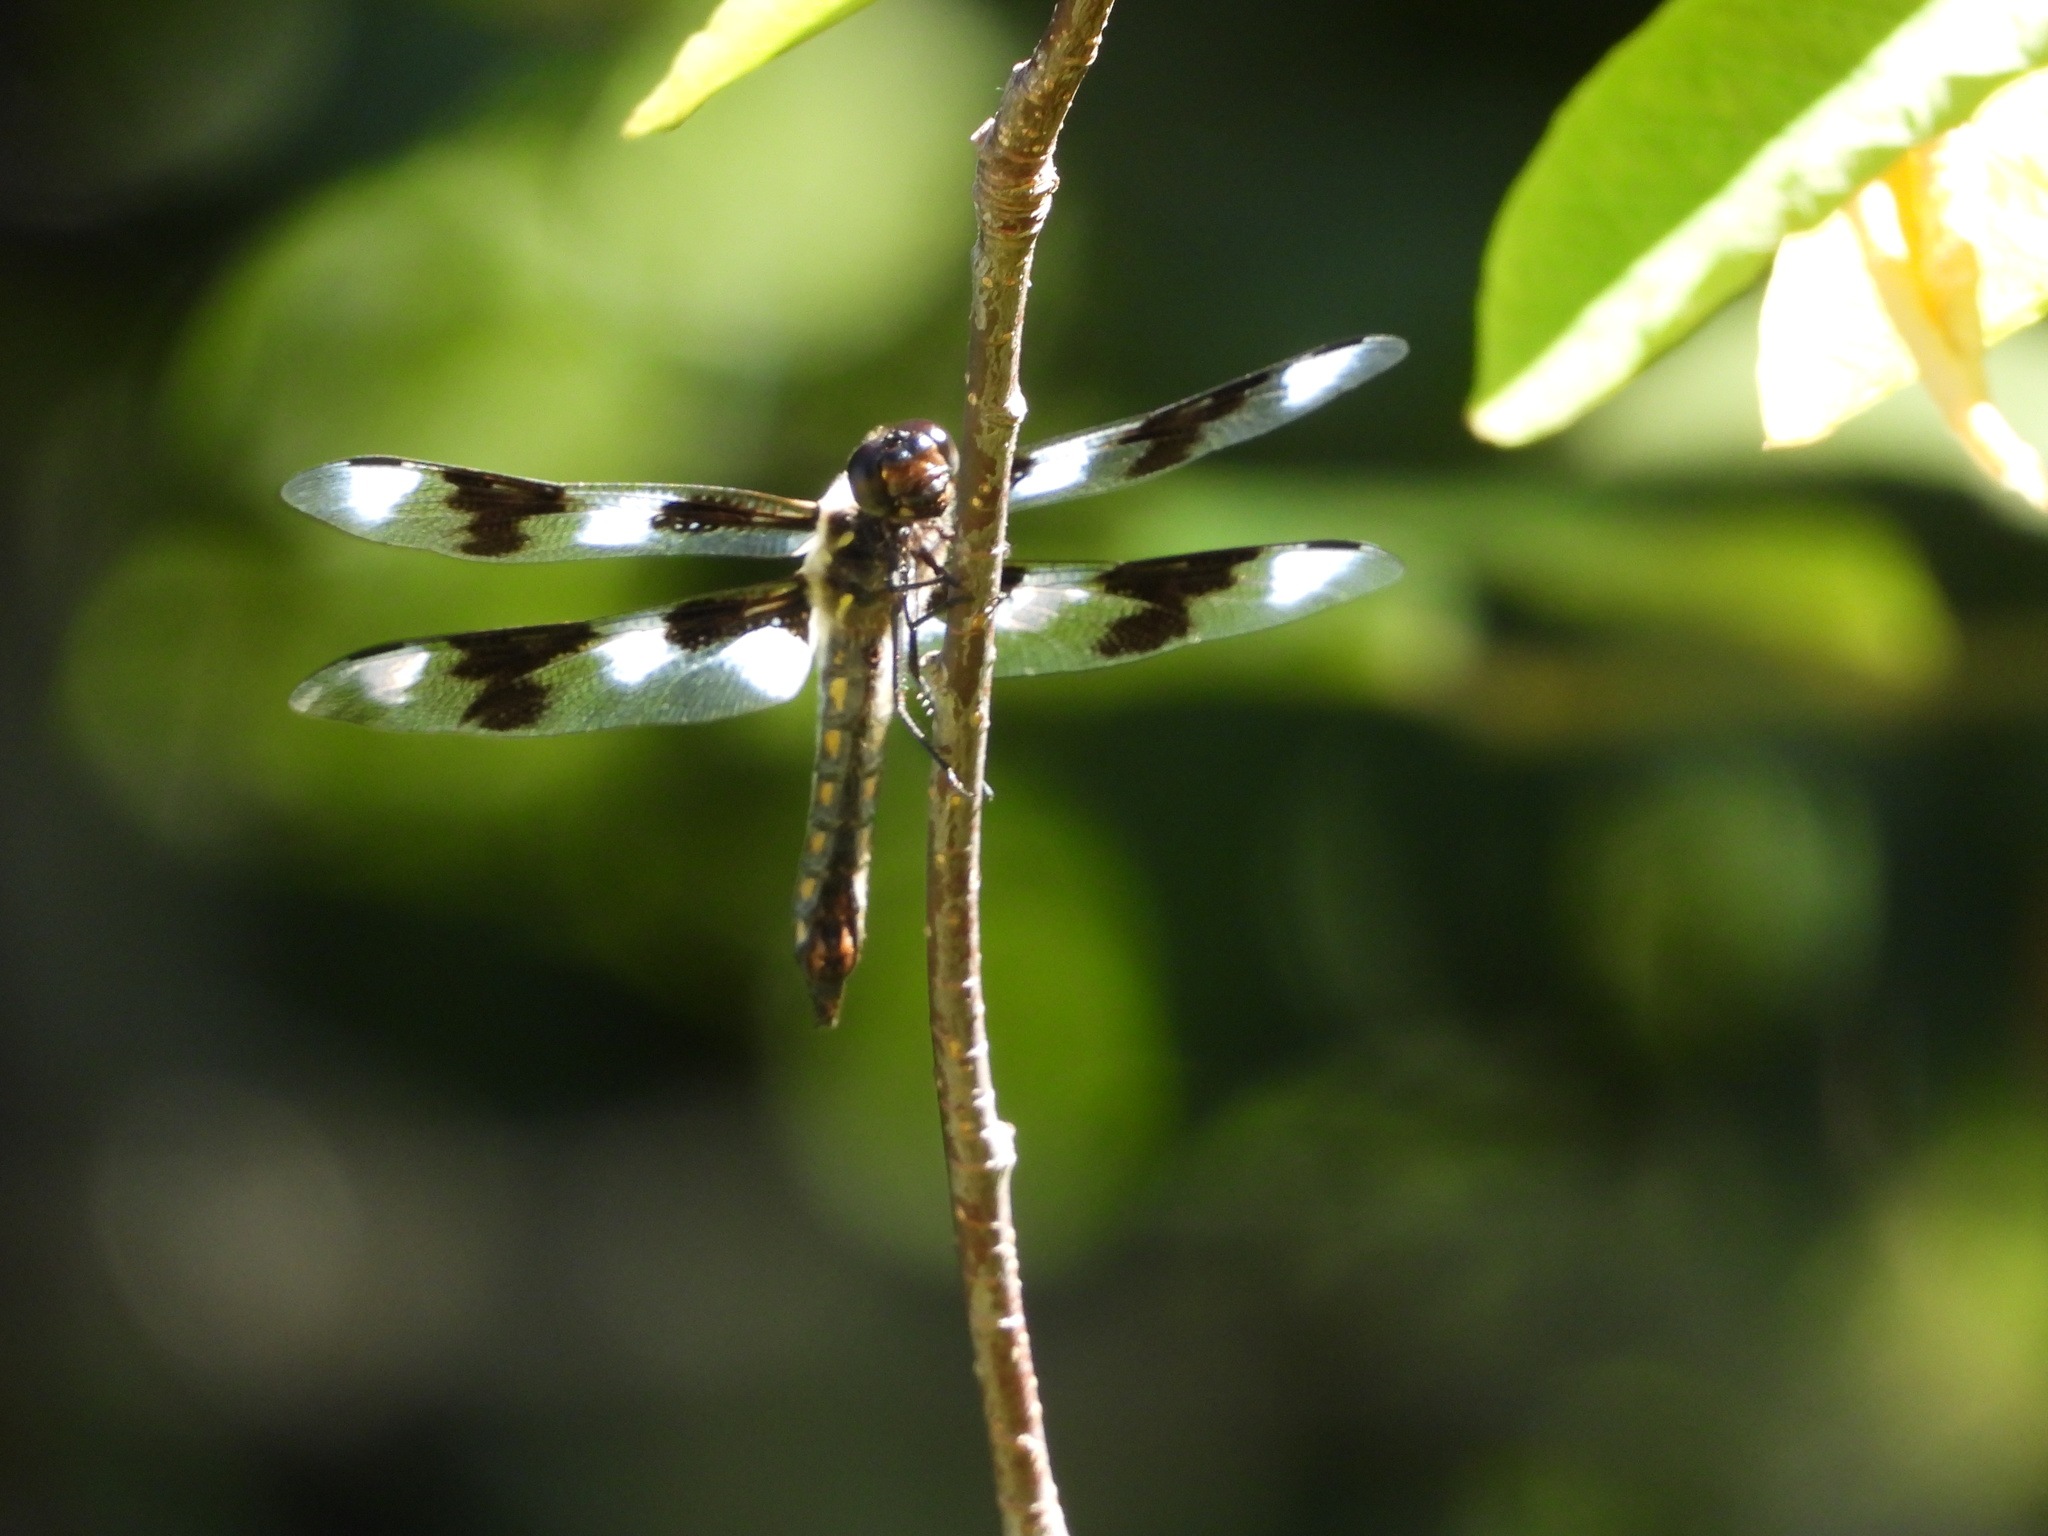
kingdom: Animalia
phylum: Arthropoda
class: Insecta
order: Odonata
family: Libellulidae
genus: Libellula
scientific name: Libellula forensis
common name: Eight-spotted skimmer
